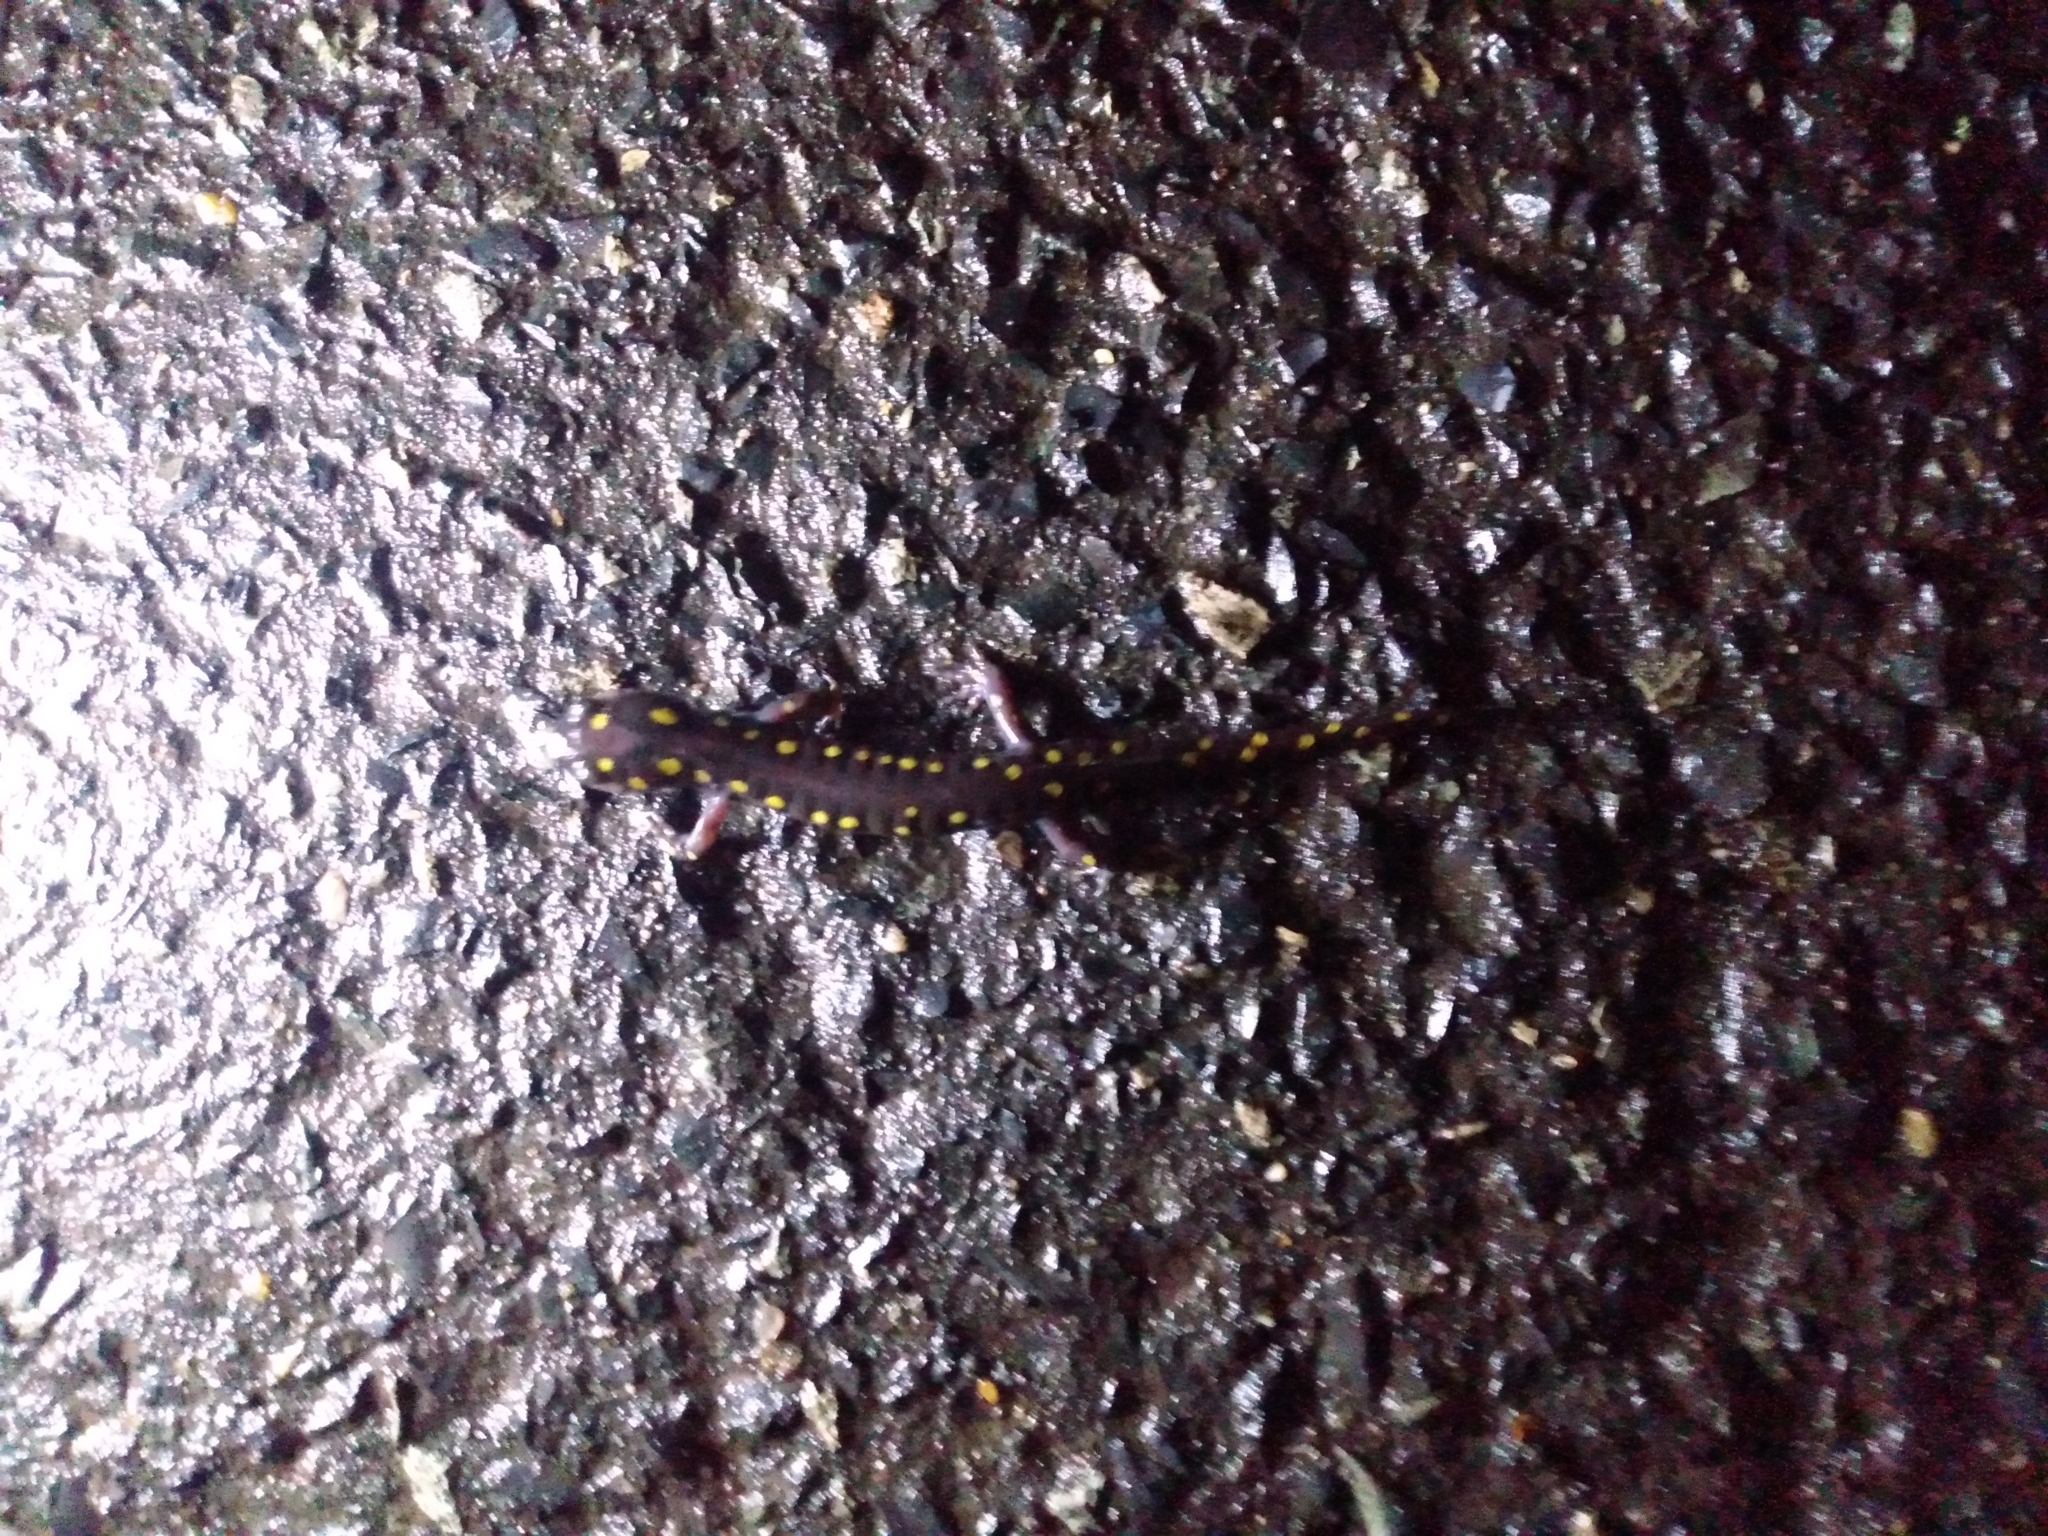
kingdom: Animalia
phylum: Chordata
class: Amphibia
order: Caudata
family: Ambystomatidae
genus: Ambystoma
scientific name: Ambystoma maculatum
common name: Spotted salamander
